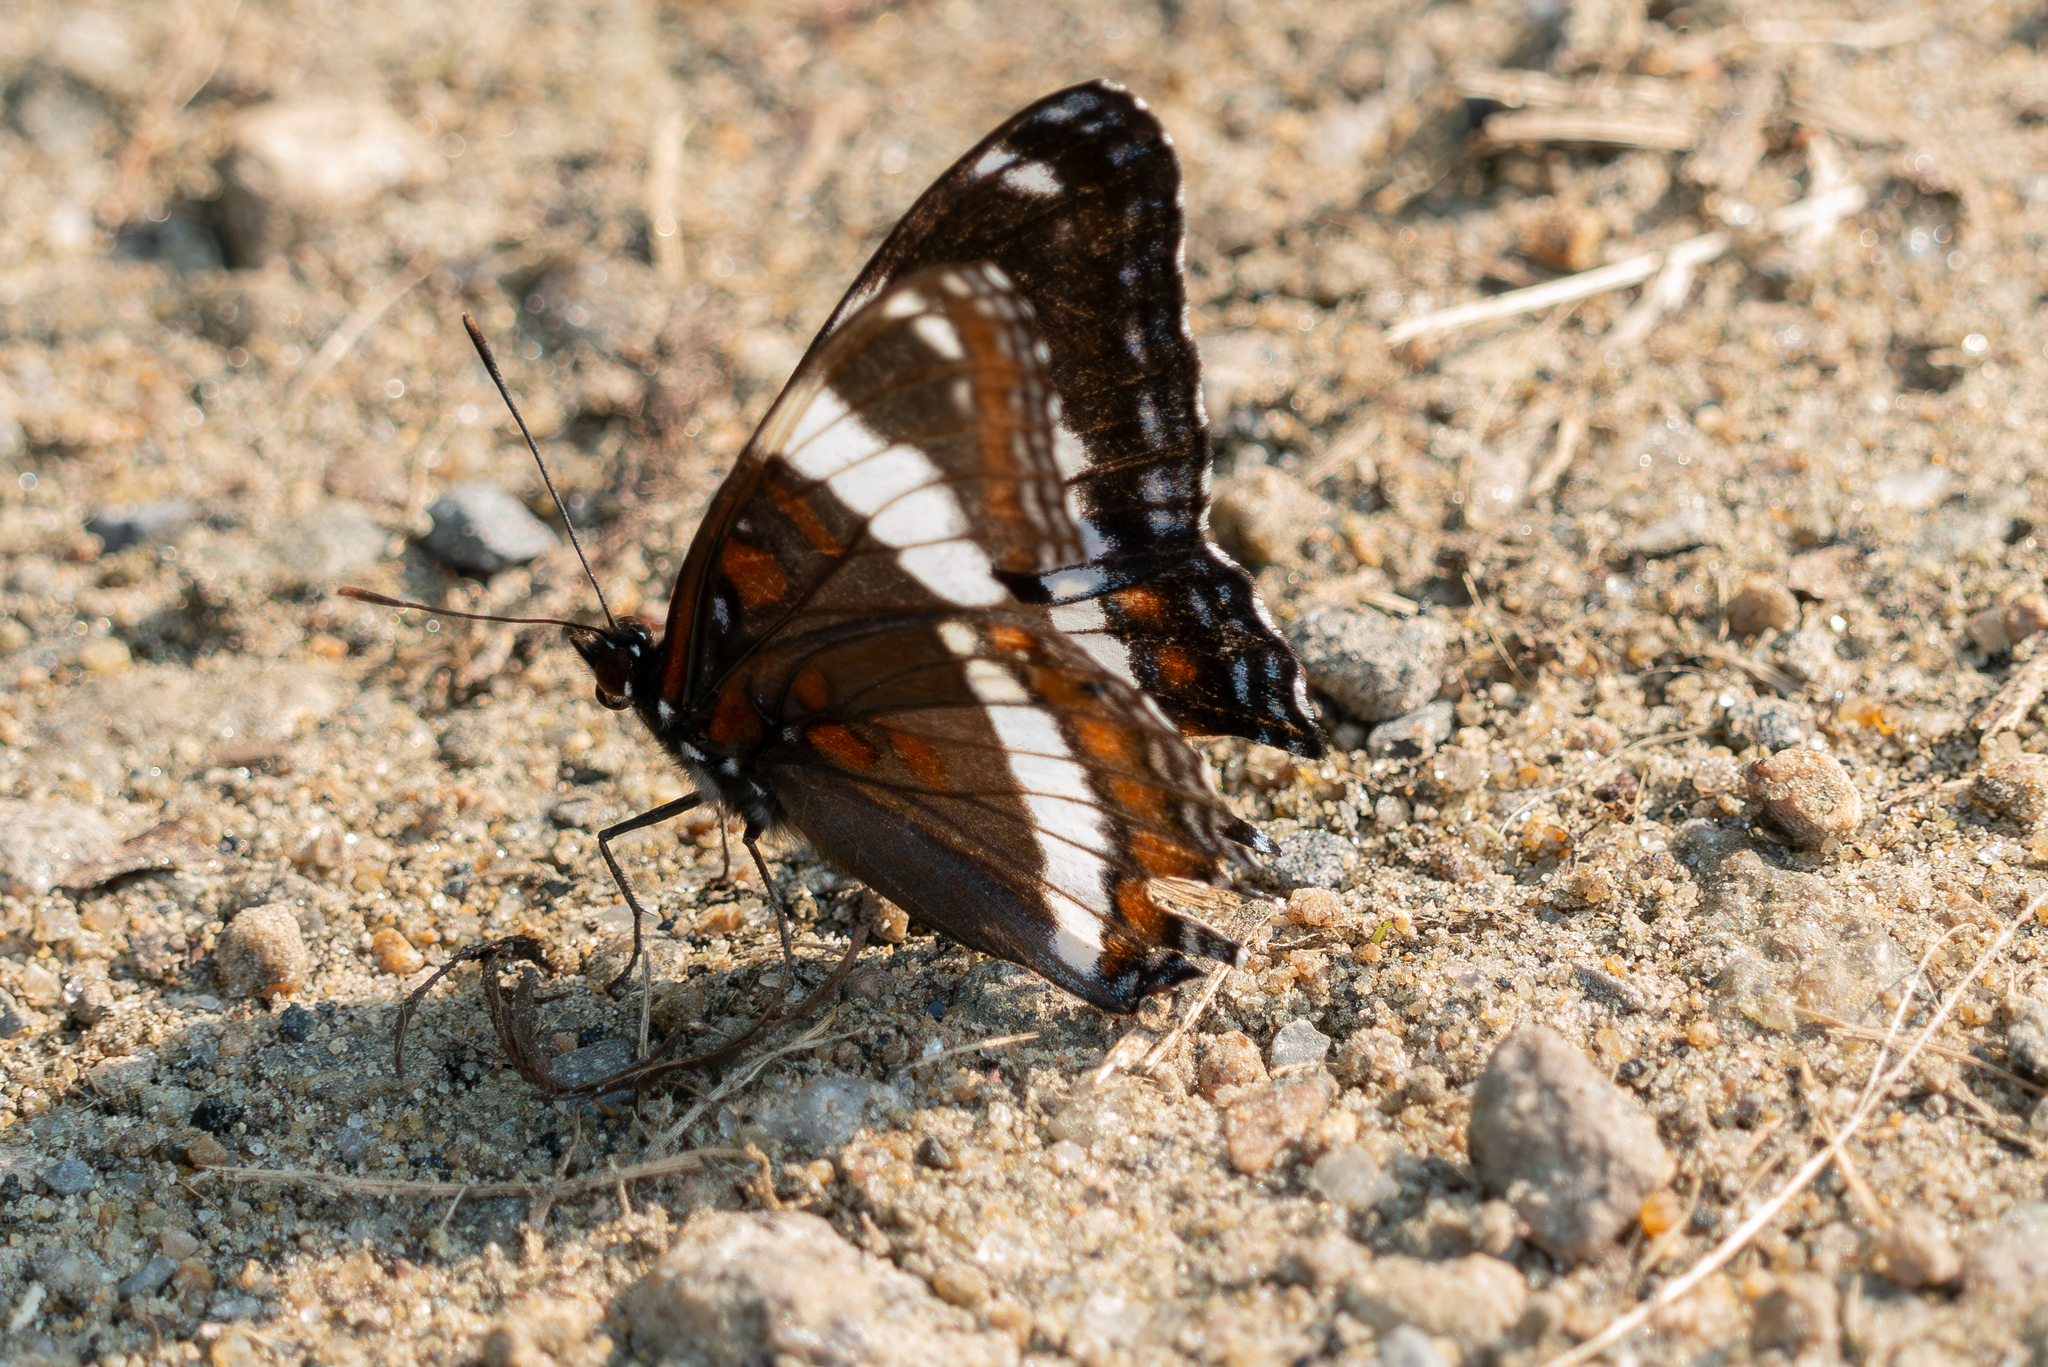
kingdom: Animalia
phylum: Arthropoda
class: Insecta
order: Lepidoptera
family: Nymphalidae
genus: Limenitis
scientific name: Limenitis arthemis
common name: Red-spotted admiral
